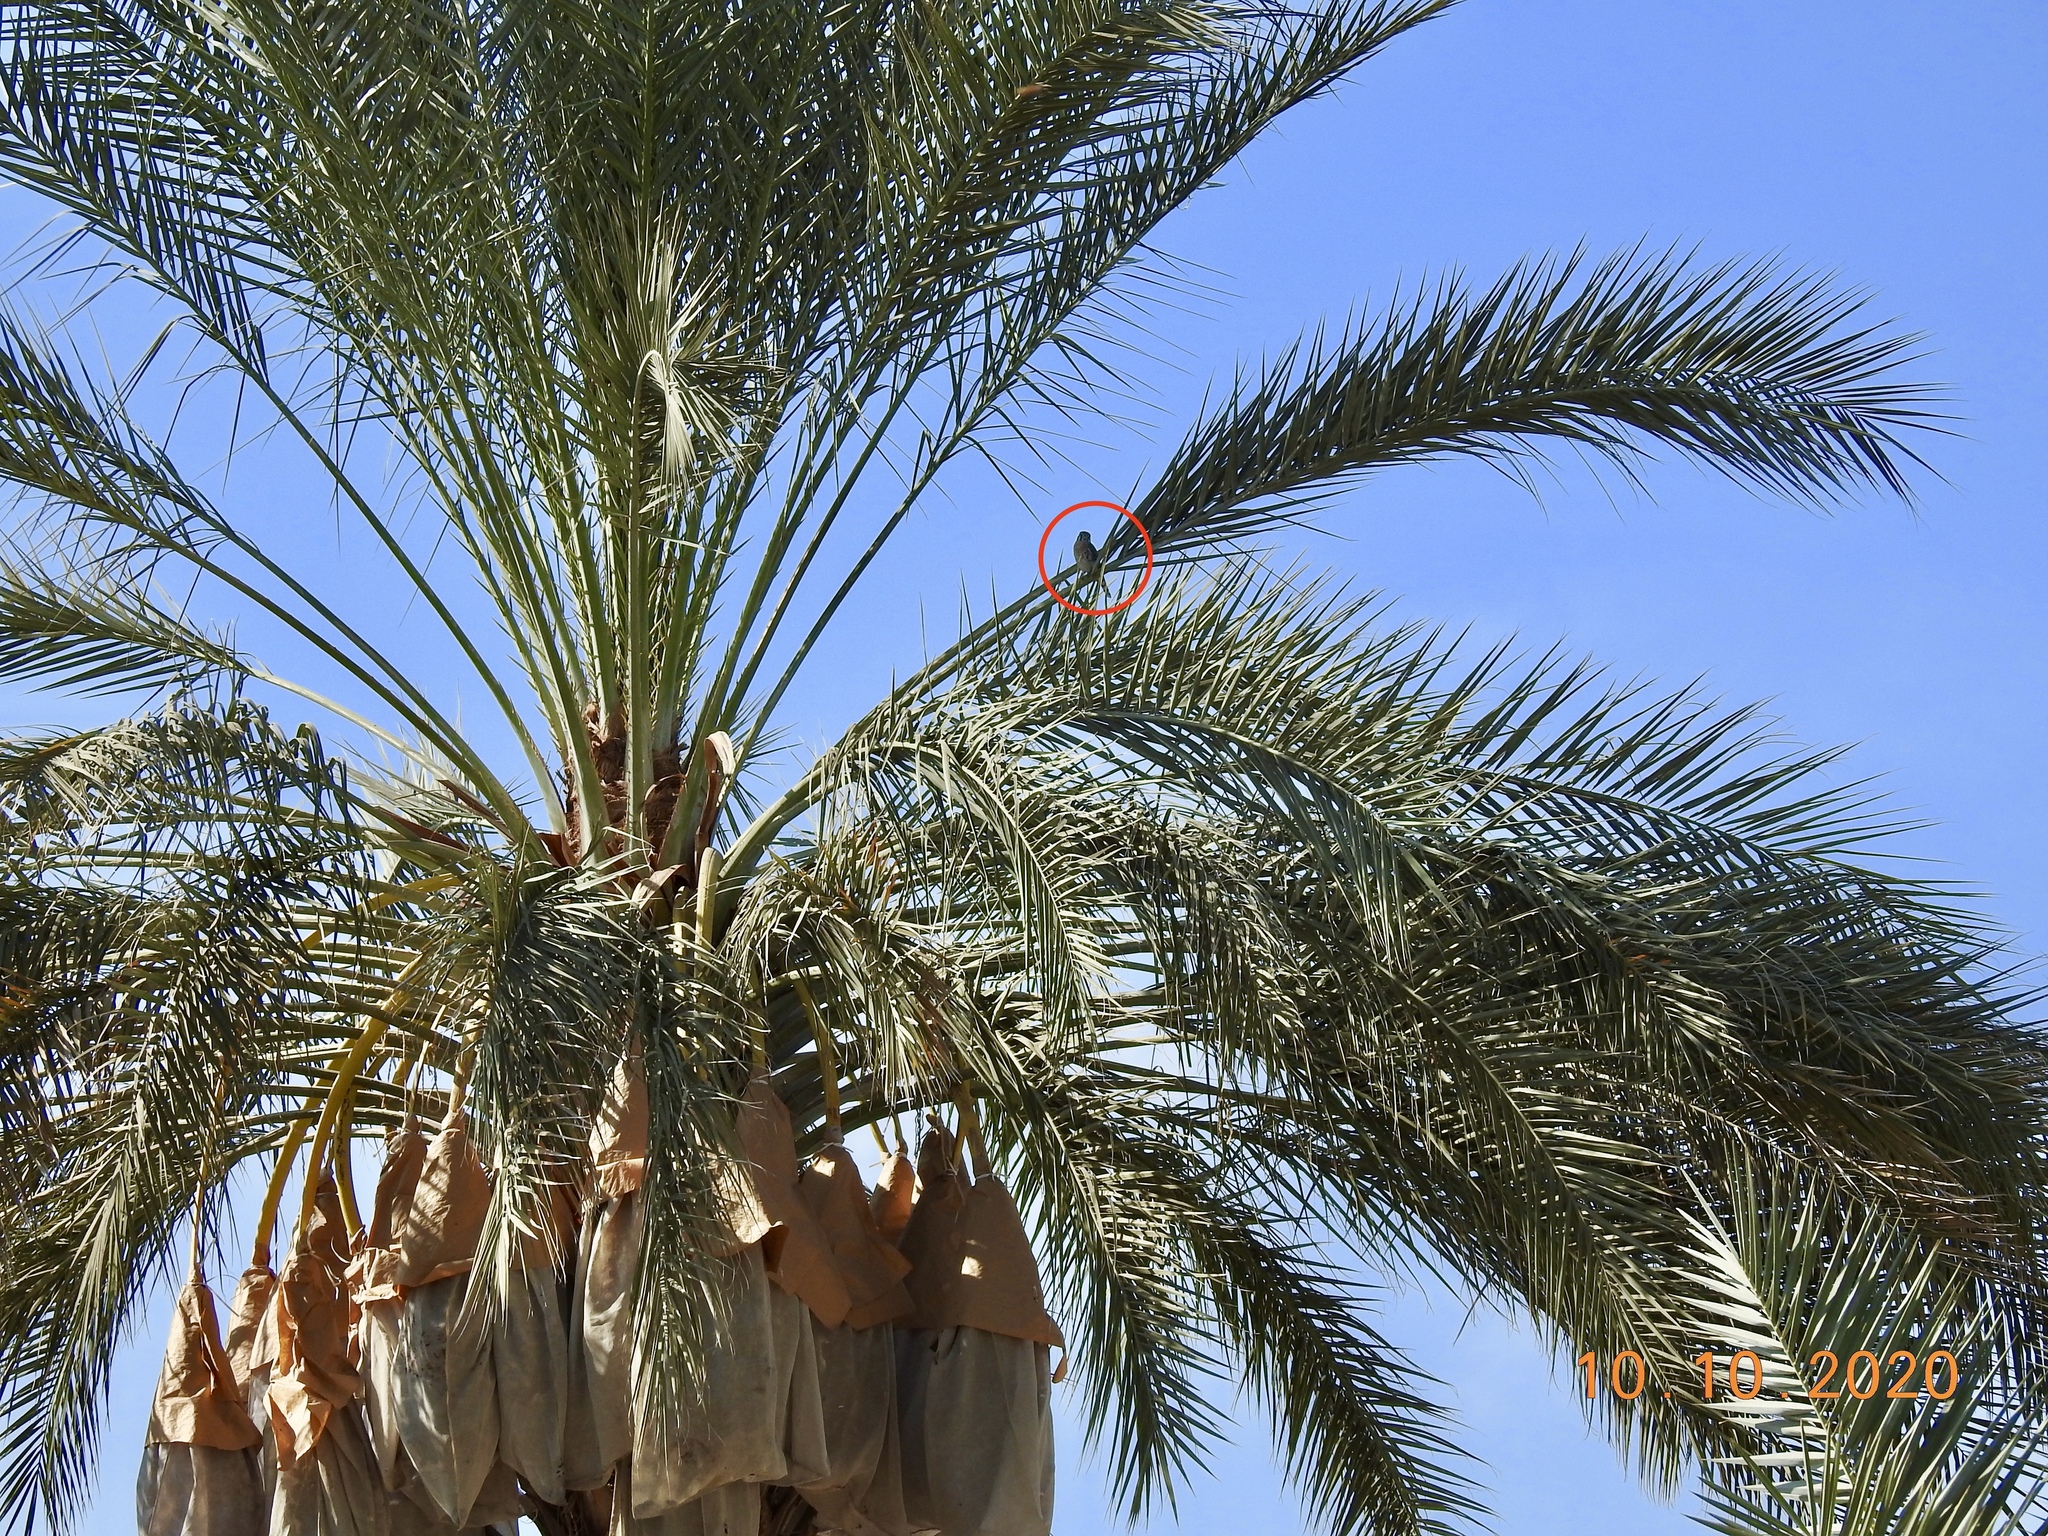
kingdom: Animalia
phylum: Chordata
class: Aves
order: Falconiformes
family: Falconidae
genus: Falco
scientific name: Falco sparverius
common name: American kestrel
